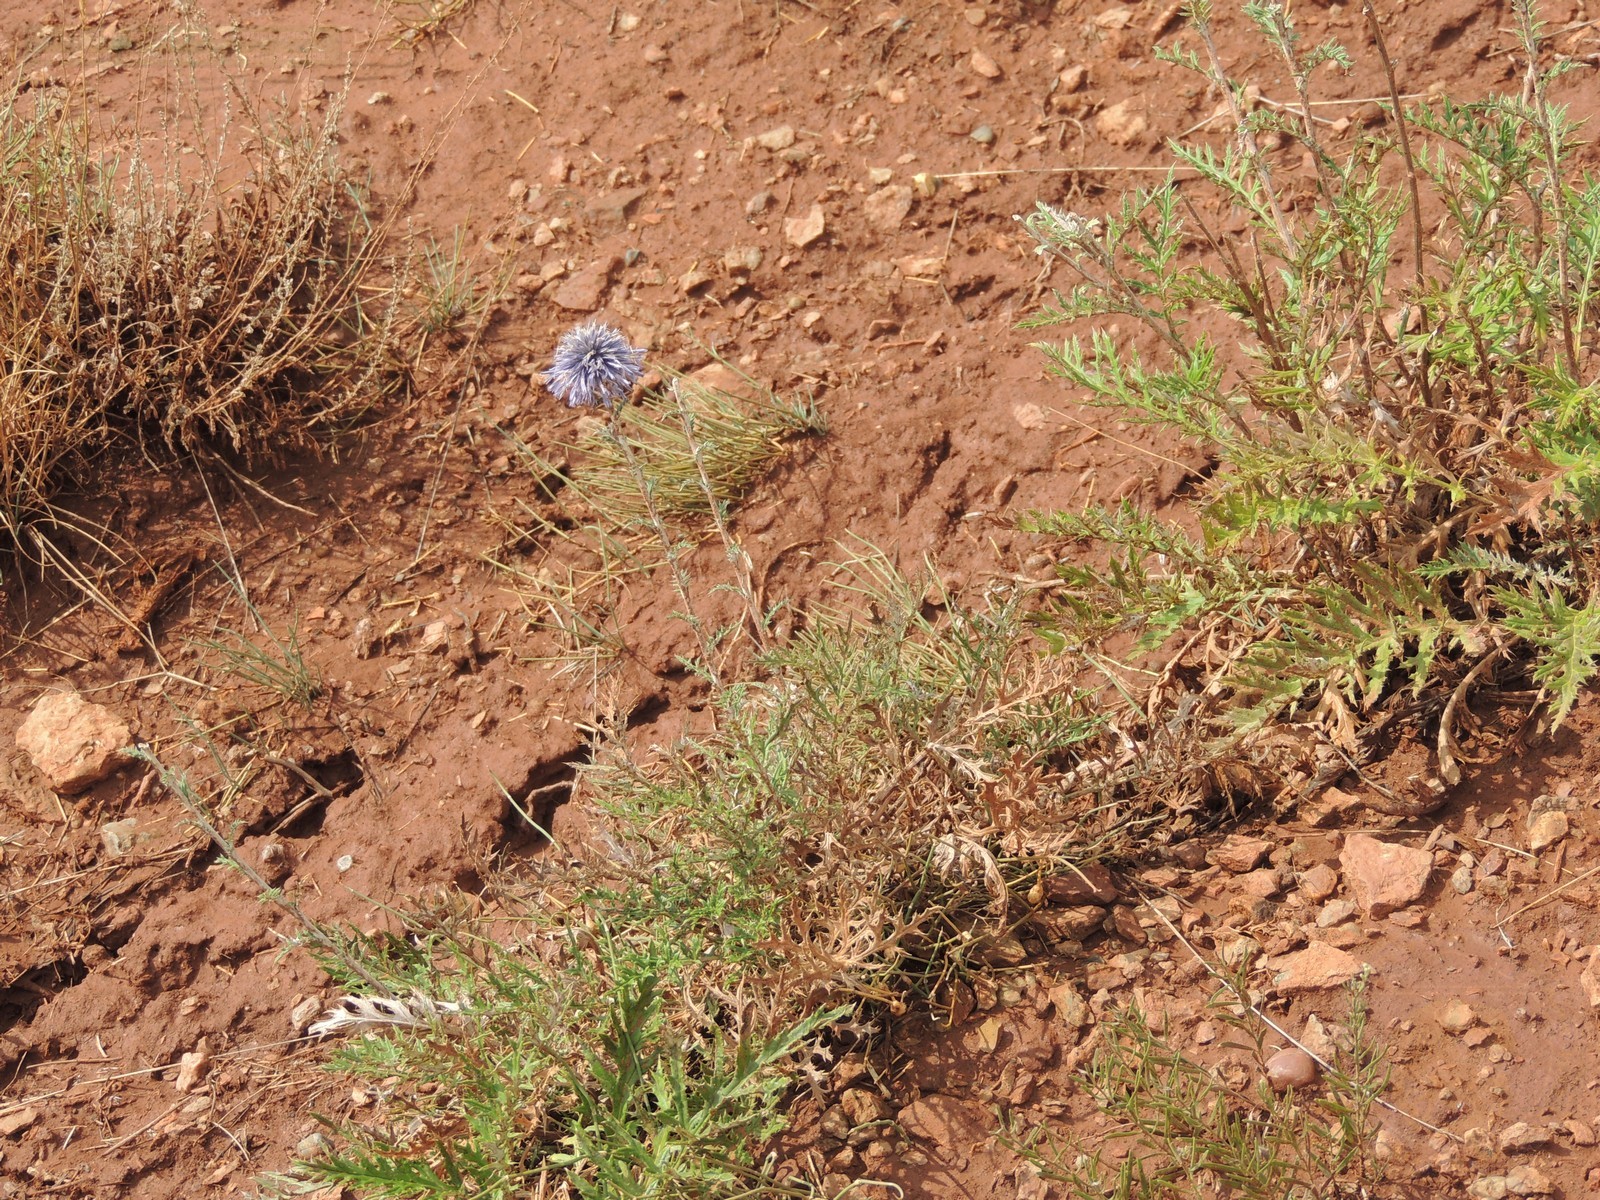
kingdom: Plantae
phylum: Tracheophyta
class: Magnoliopsida
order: Asterales
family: Asteraceae
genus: Echinops
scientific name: Echinops ritro
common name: Globe thistle
